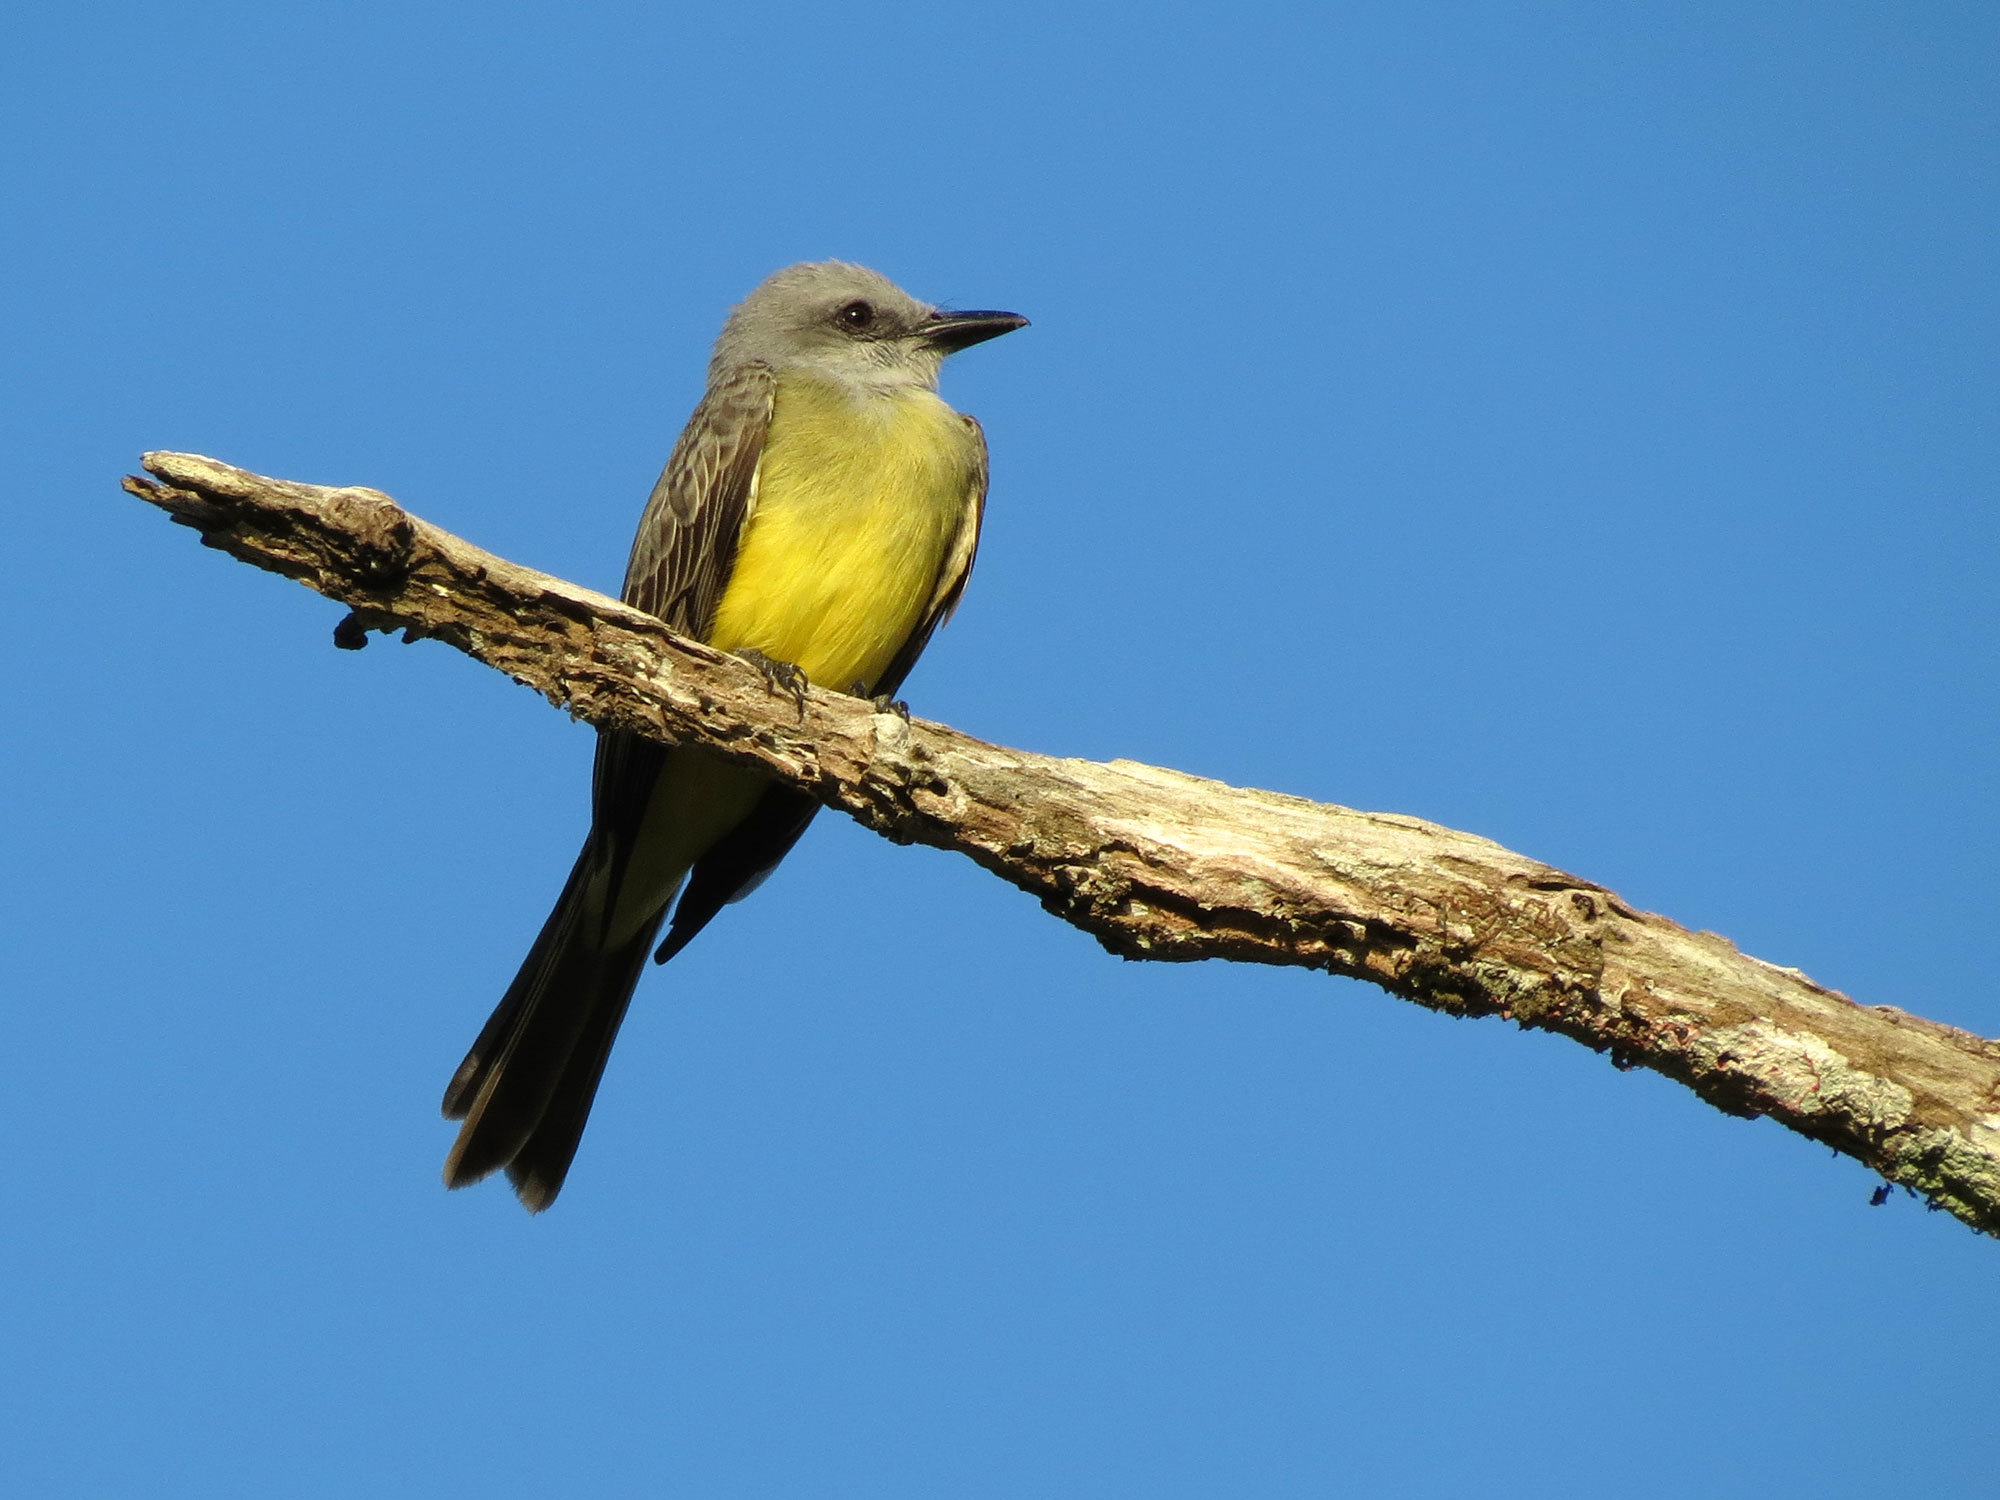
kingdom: Animalia
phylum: Chordata
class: Aves
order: Passeriformes
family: Tyrannidae
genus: Tyrannus
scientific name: Tyrannus melancholicus
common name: Tropical kingbird
